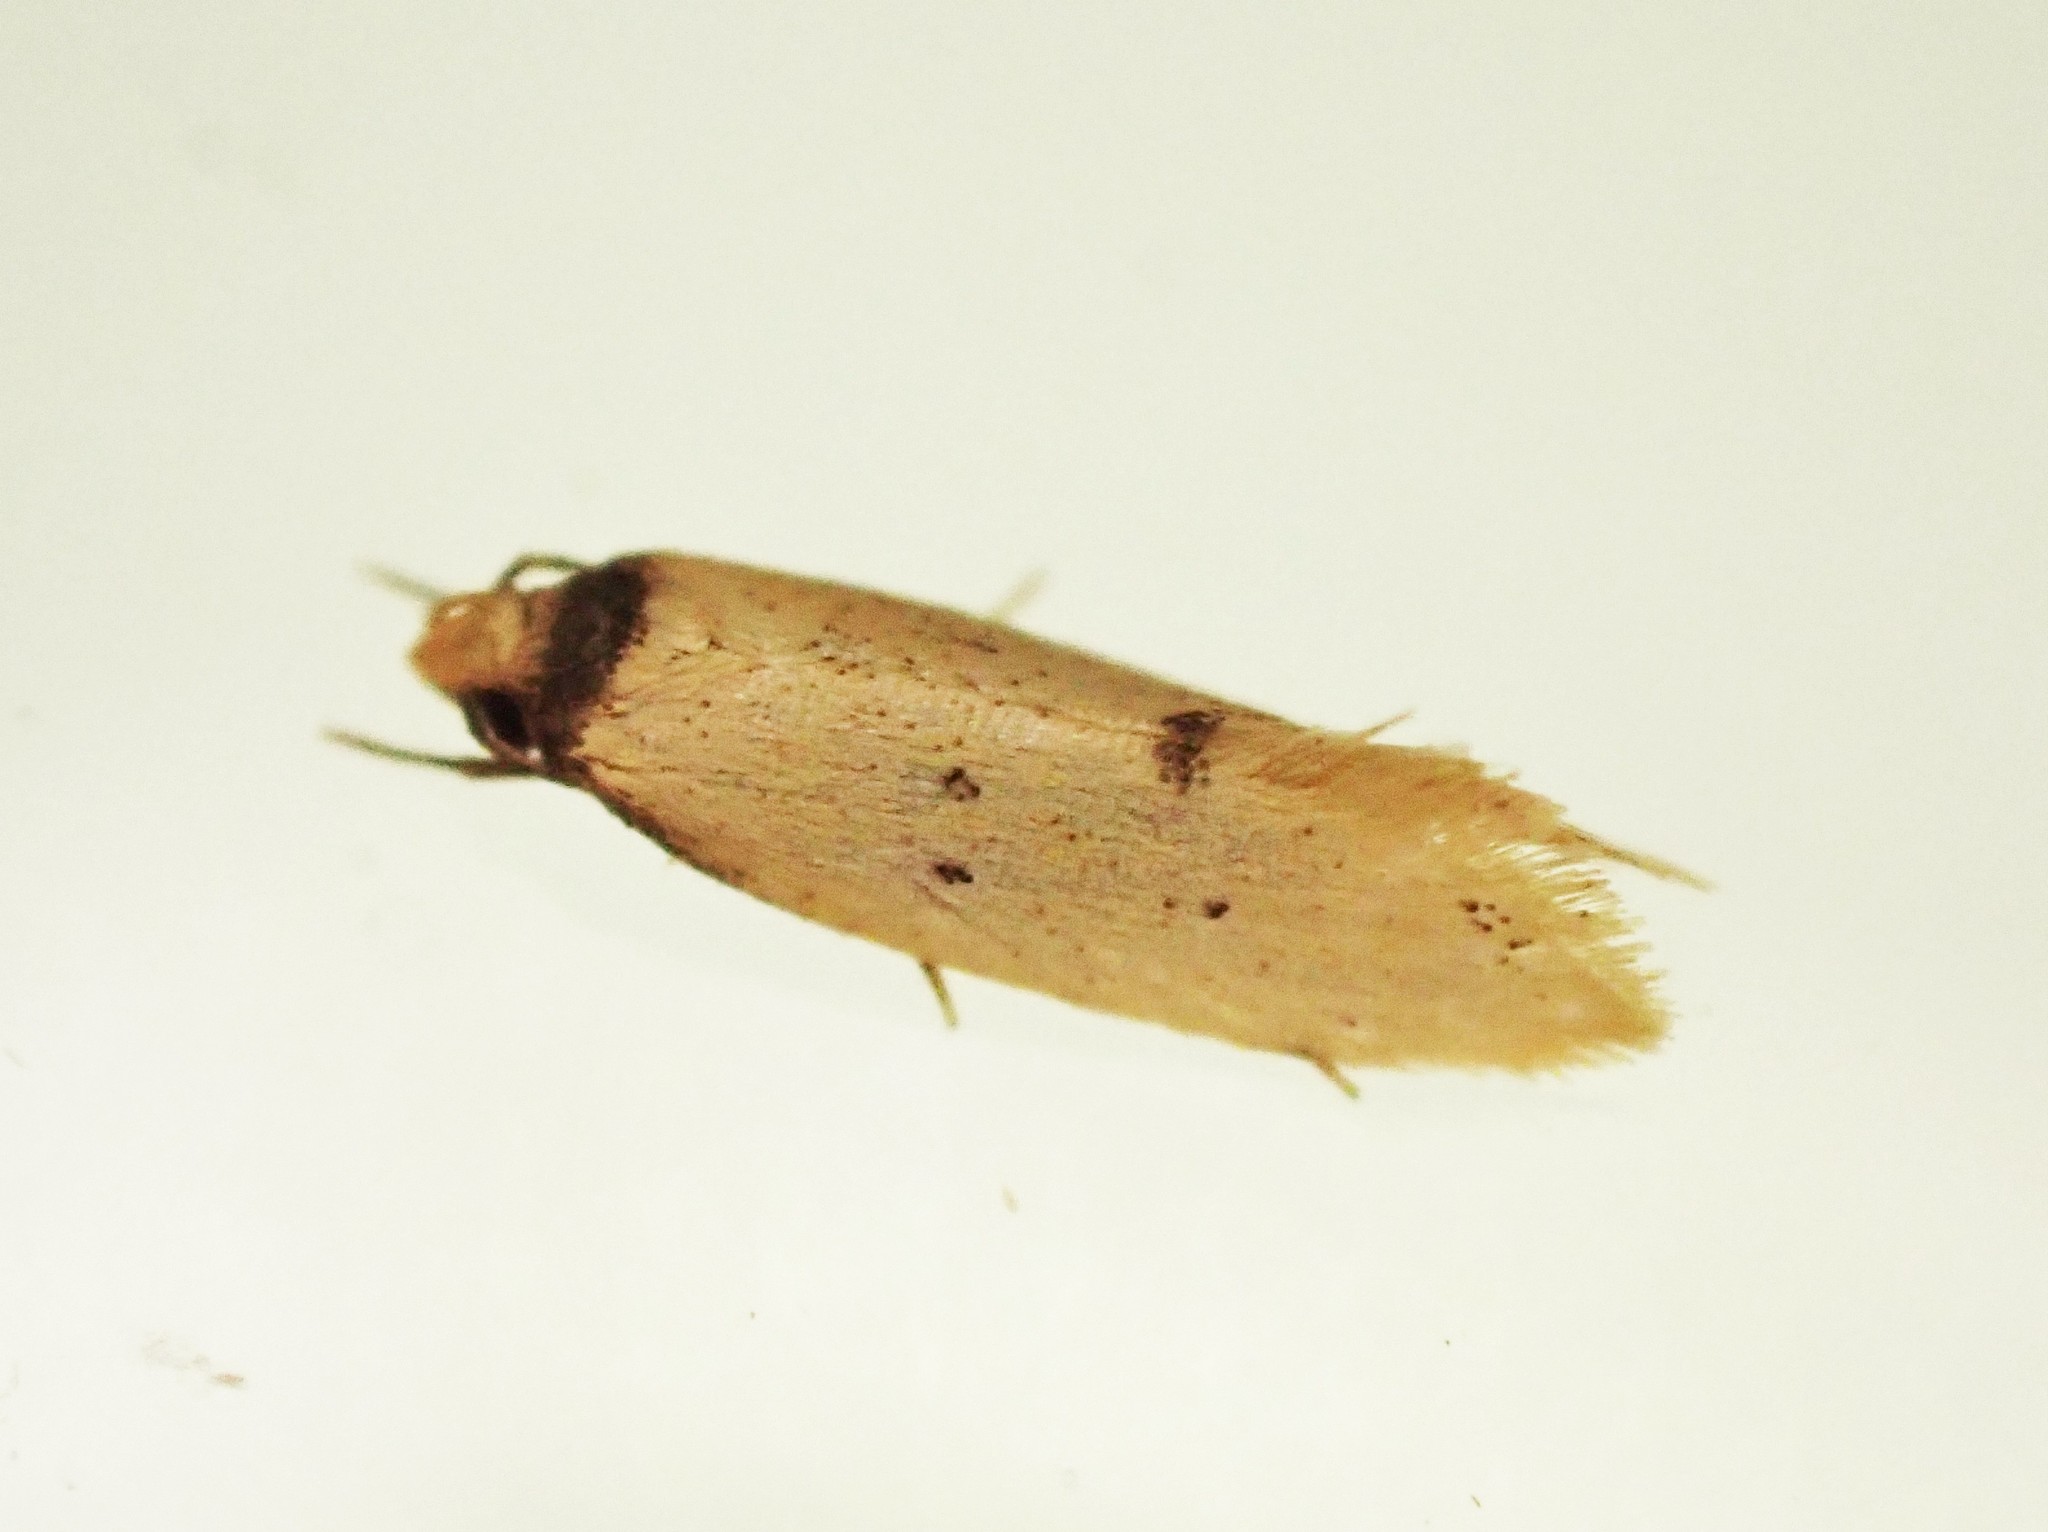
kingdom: Animalia
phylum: Arthropoda
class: Insecta
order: Lepidoptera
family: Oecophoridae
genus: Atalopsis
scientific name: Atalopsis
